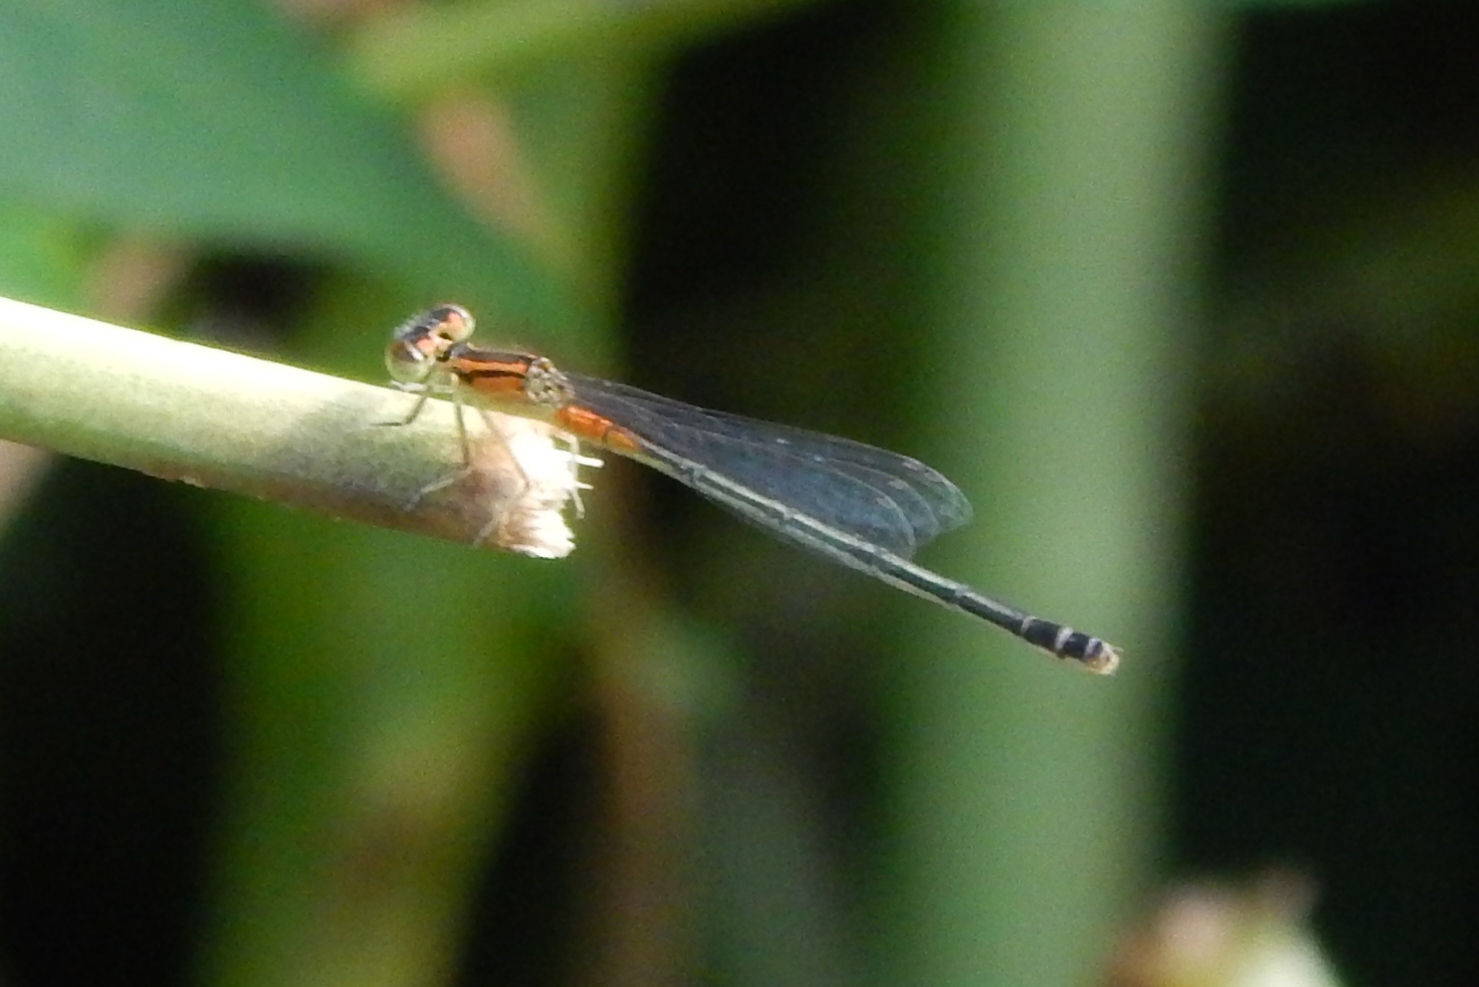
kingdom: Animalia
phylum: Arthropoda
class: Insecta
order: Odonata
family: Coenagrionidae
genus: Ischnura
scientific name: Ischnura verticalis
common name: Eastern forktail
